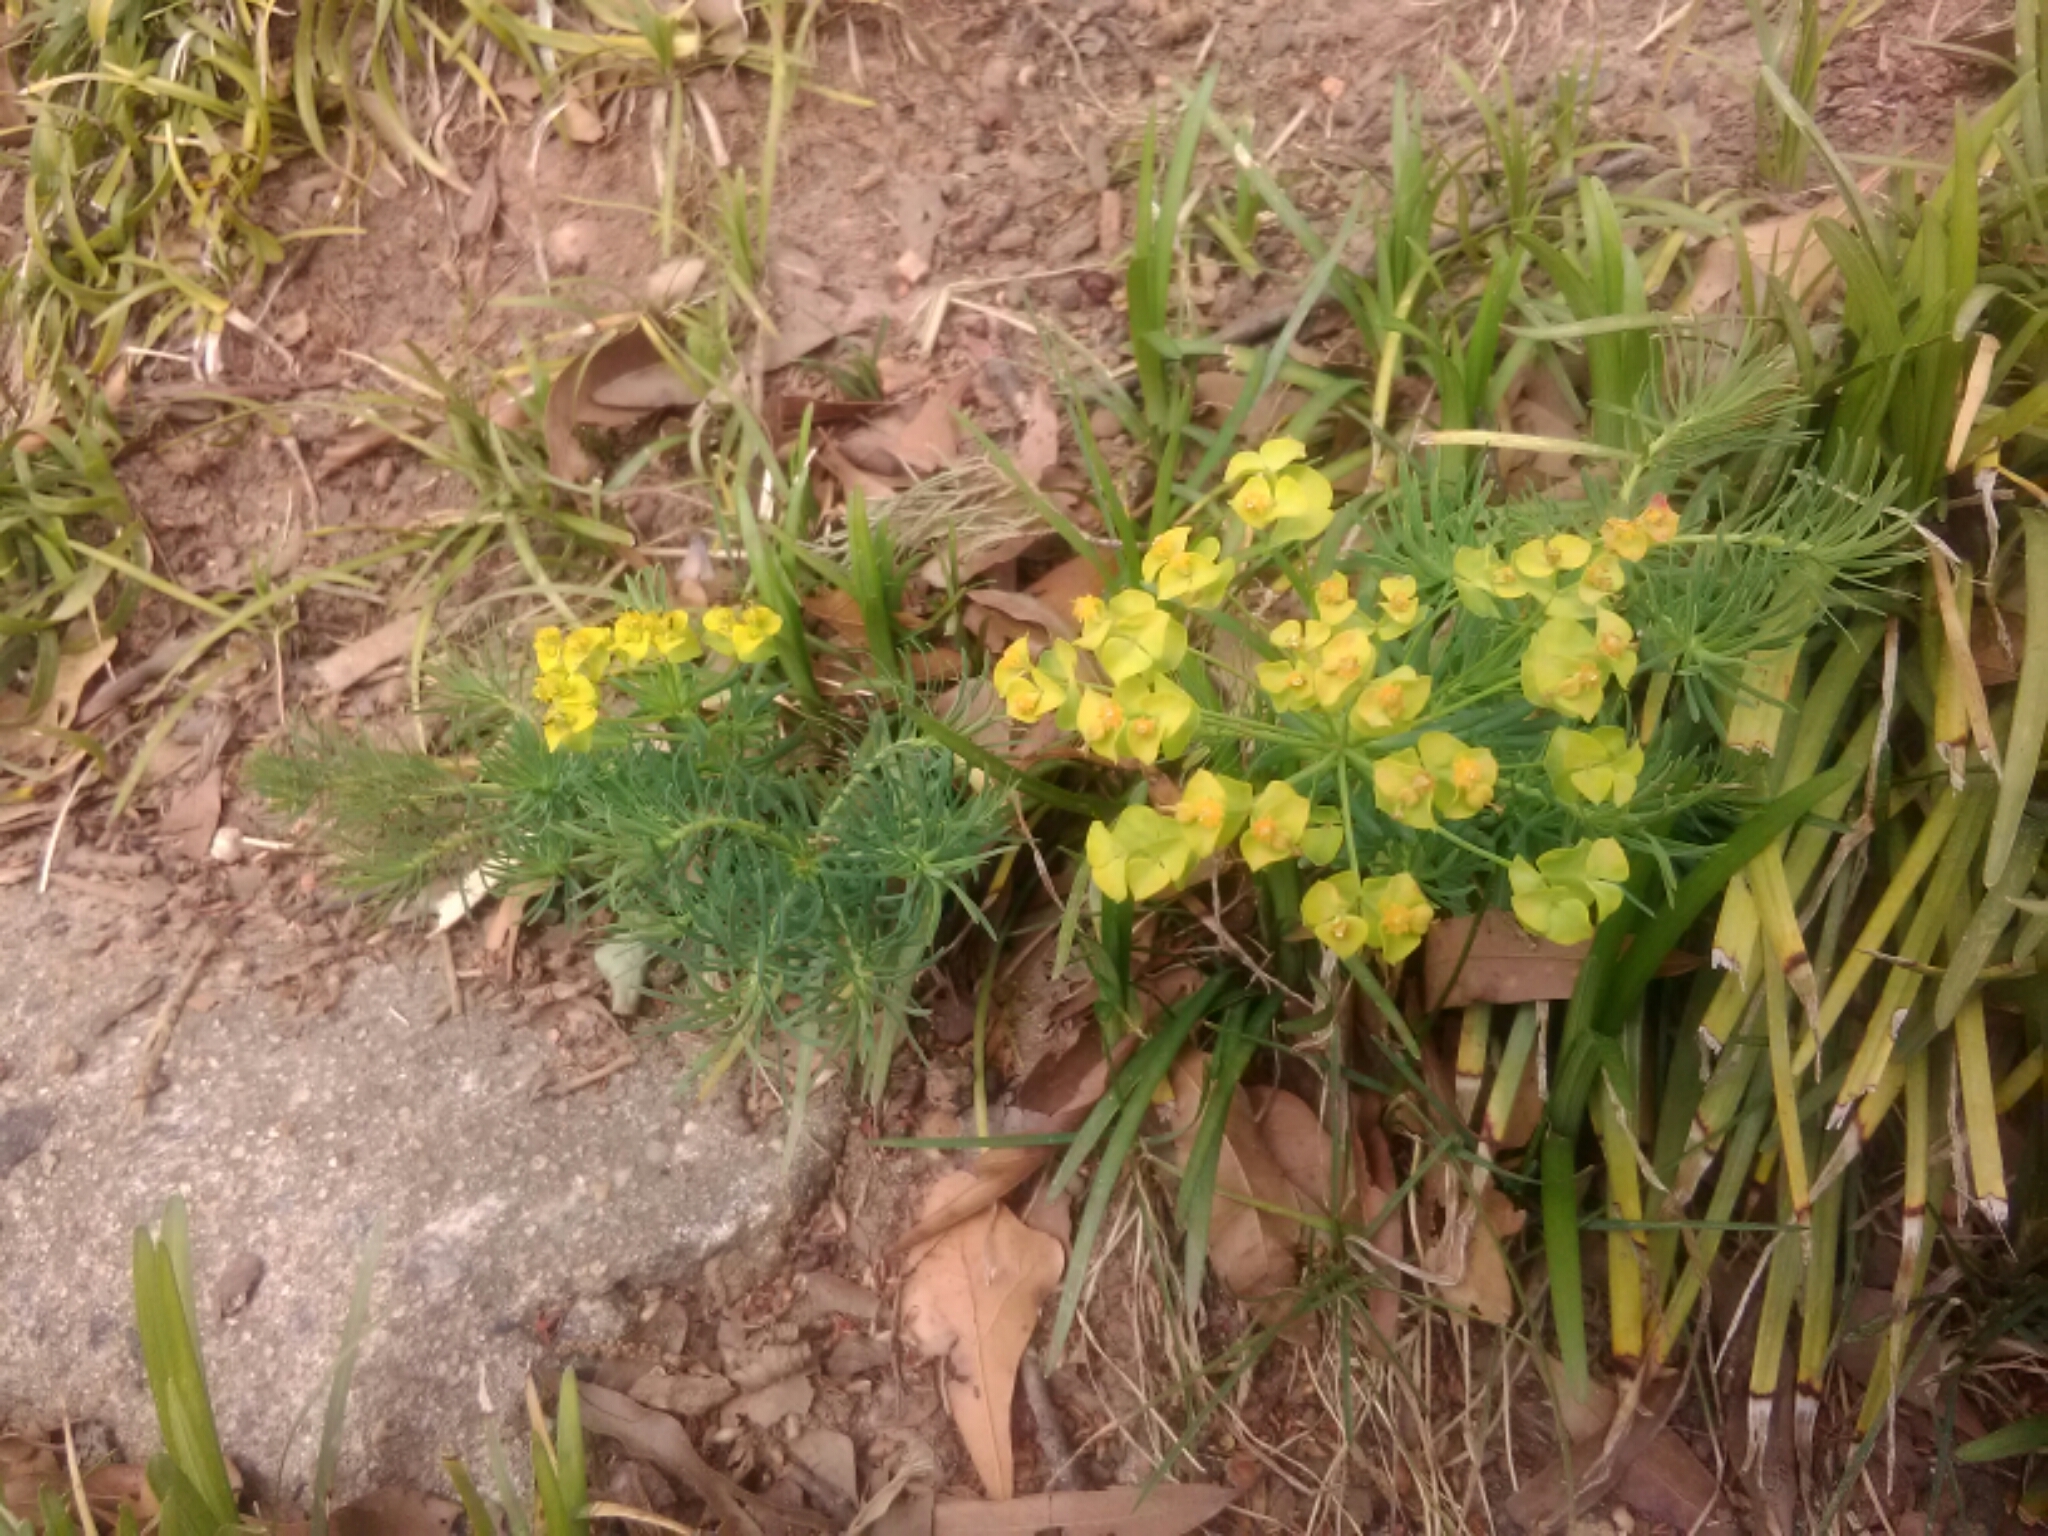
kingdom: Plantae
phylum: Tracheophyta
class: Magnoliopsida
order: Malpighiales
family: Euphorbiaceae
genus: Euphorbia
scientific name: Euphorbia cyparissias
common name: Cypress spurge
